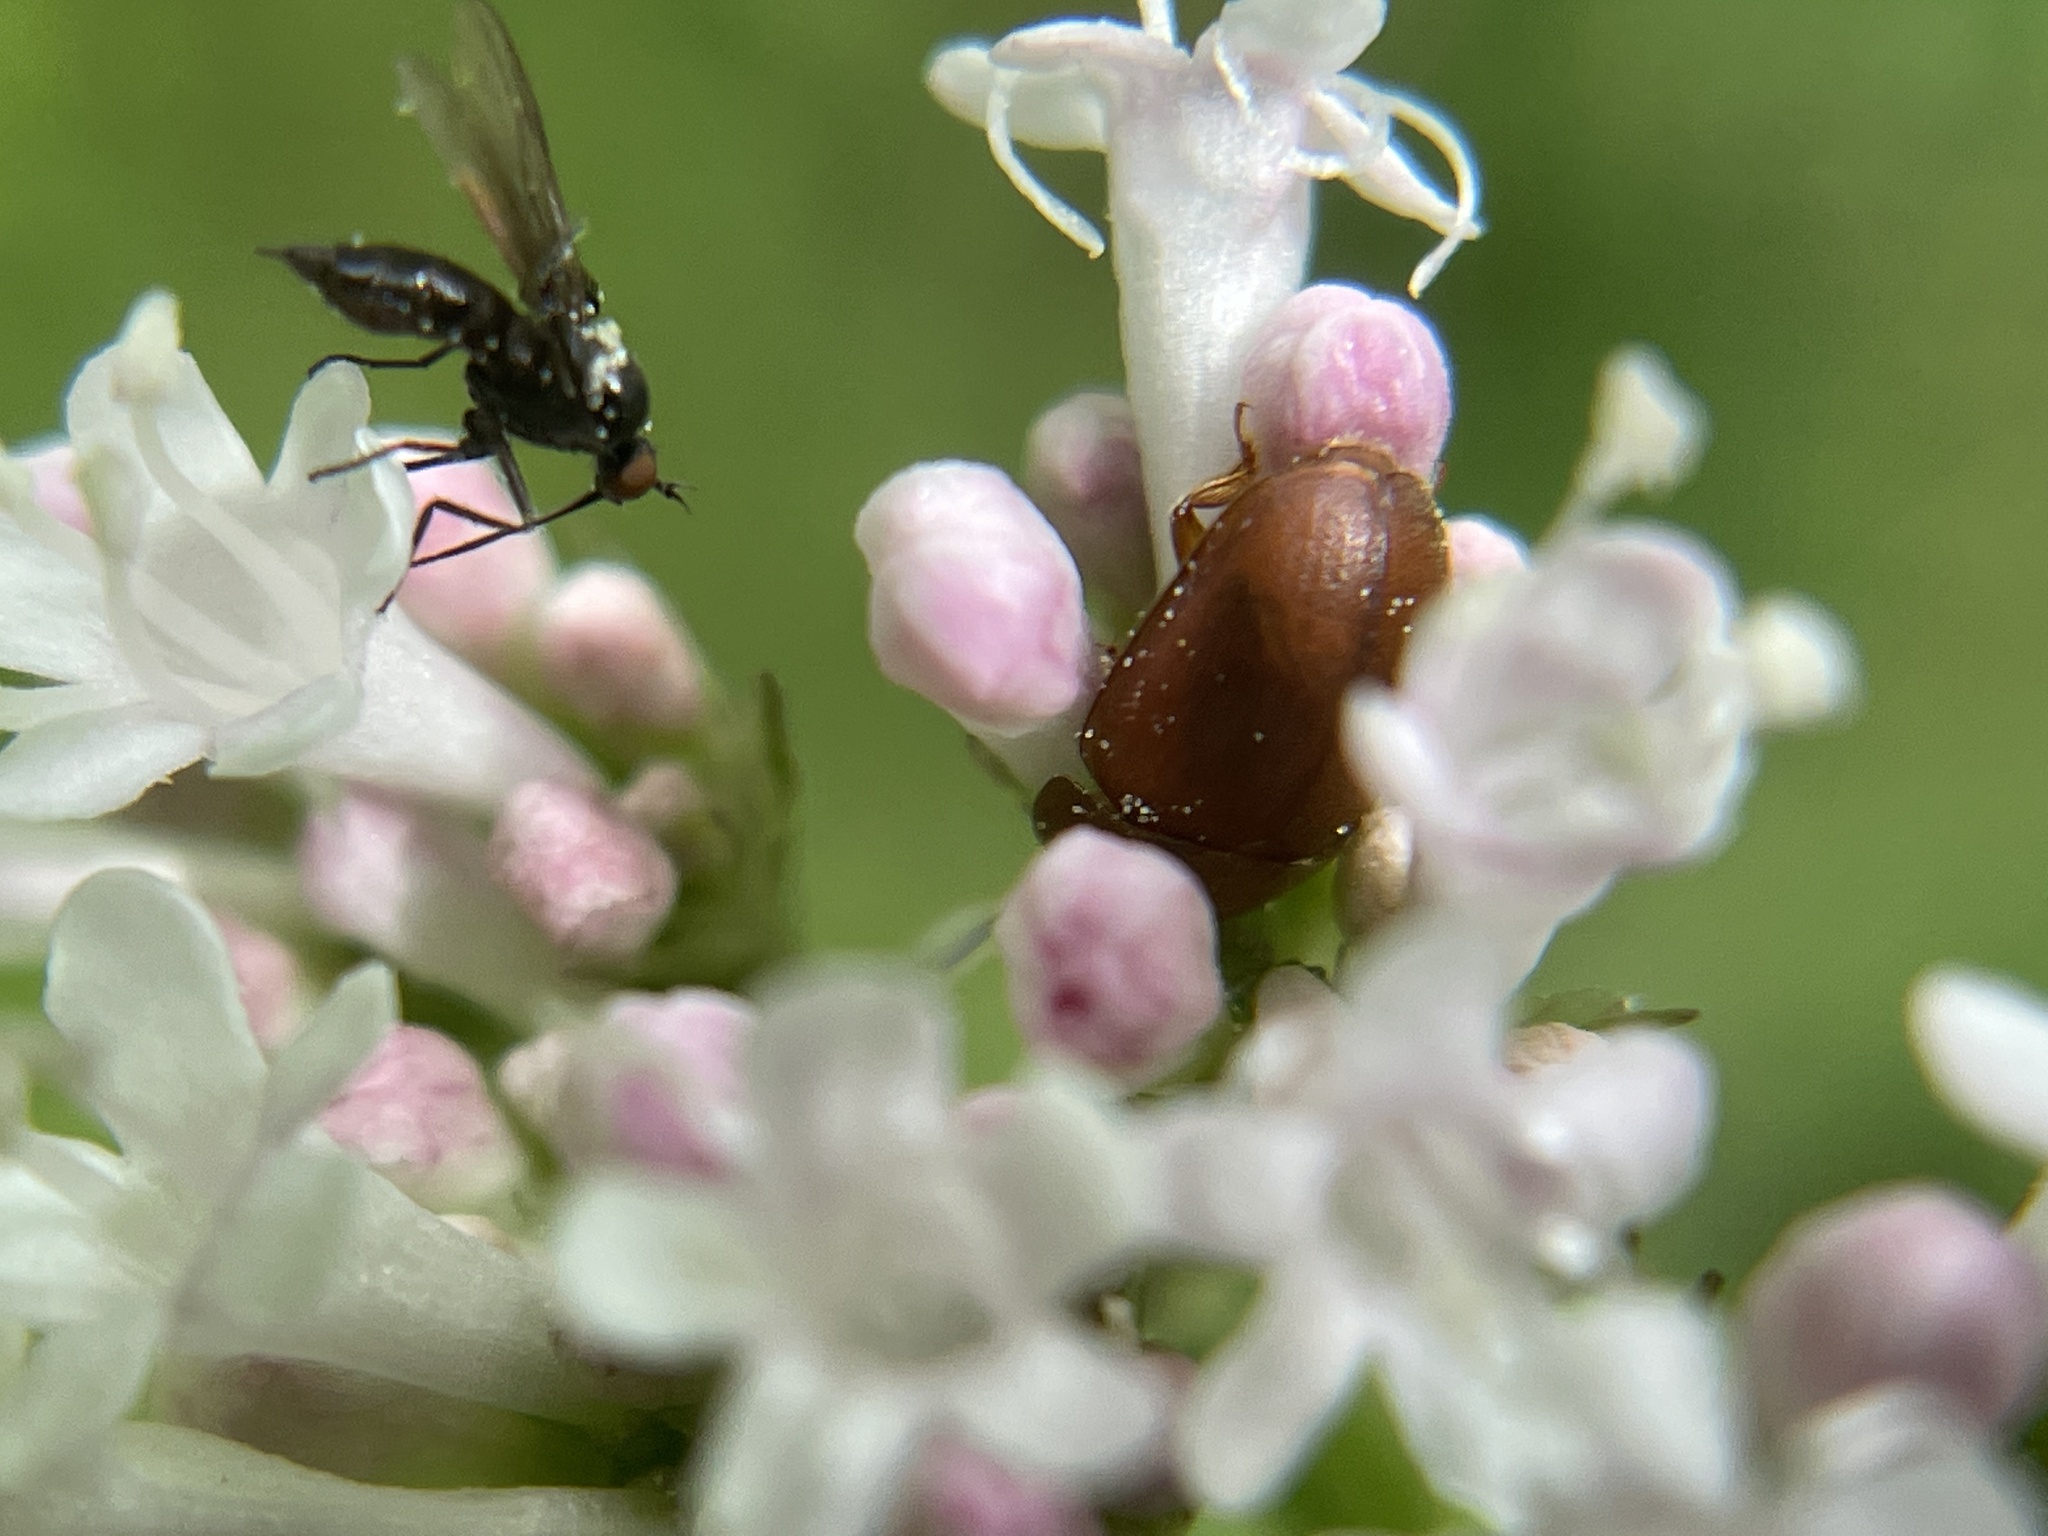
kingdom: Animalia
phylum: Arthropoda
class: Insecta
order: Coleoptera
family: Nitidulidae
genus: Cychramus
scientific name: Cychramus luteus
